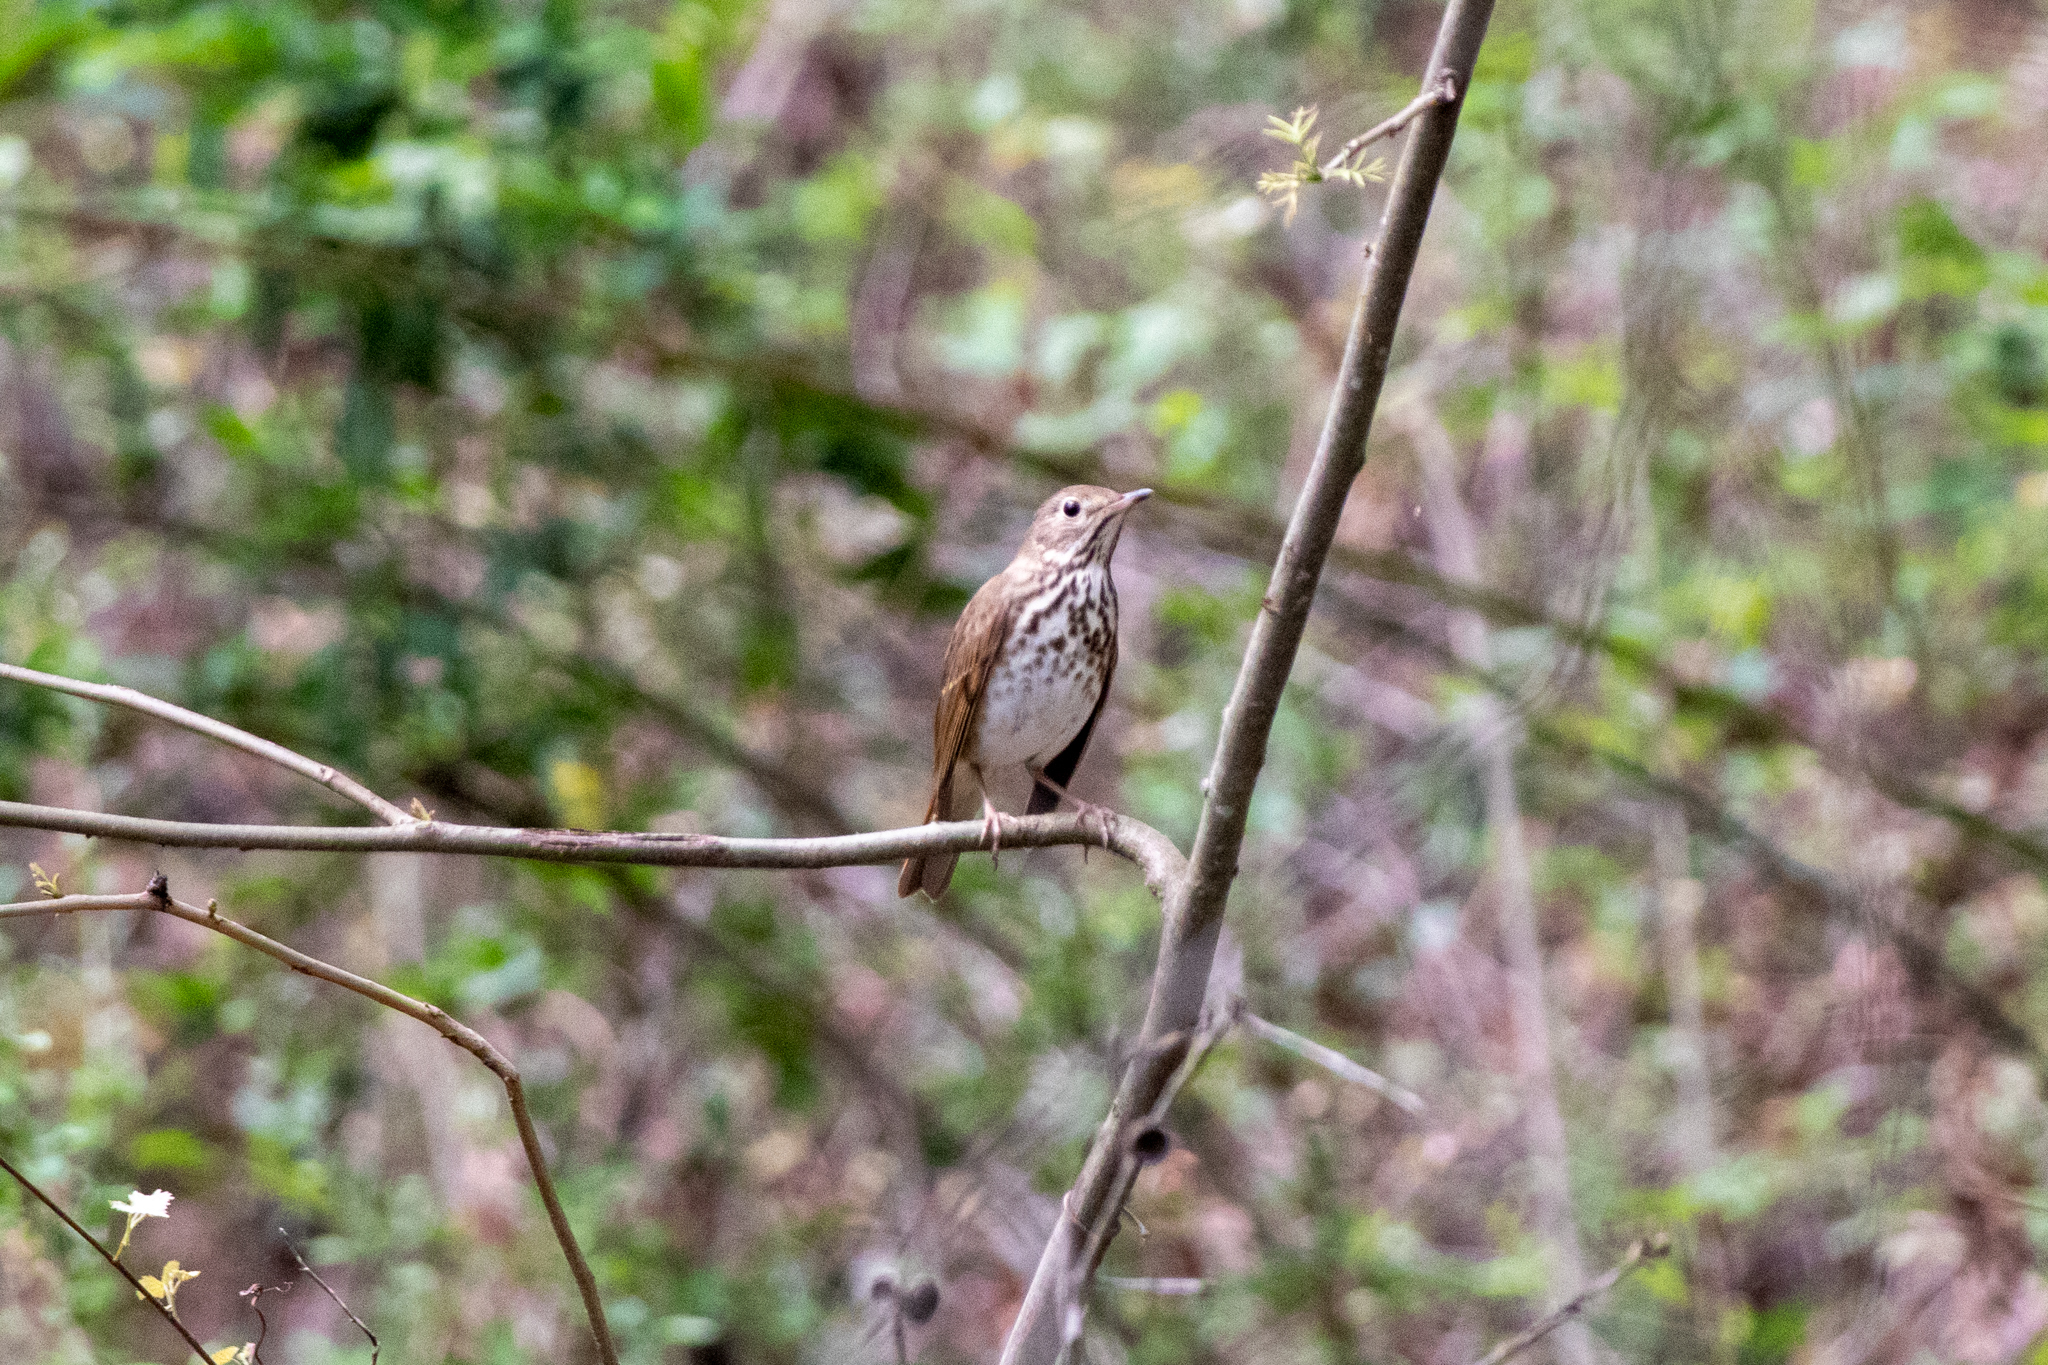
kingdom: Animalia
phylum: Chordata
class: Aves
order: Passeriformes
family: Turdidae
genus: Catharus
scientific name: Catharus guttatus
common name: Hermit thrush
